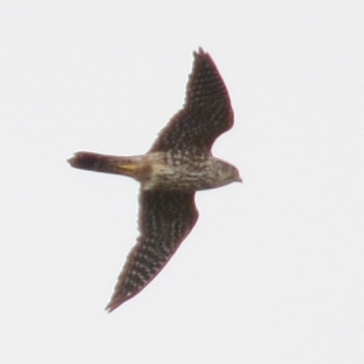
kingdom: Animalia
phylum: Chordata
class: Aves
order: Falconiformes
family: Falconidae
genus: Falco
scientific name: Falco columbarius
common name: Merlin
